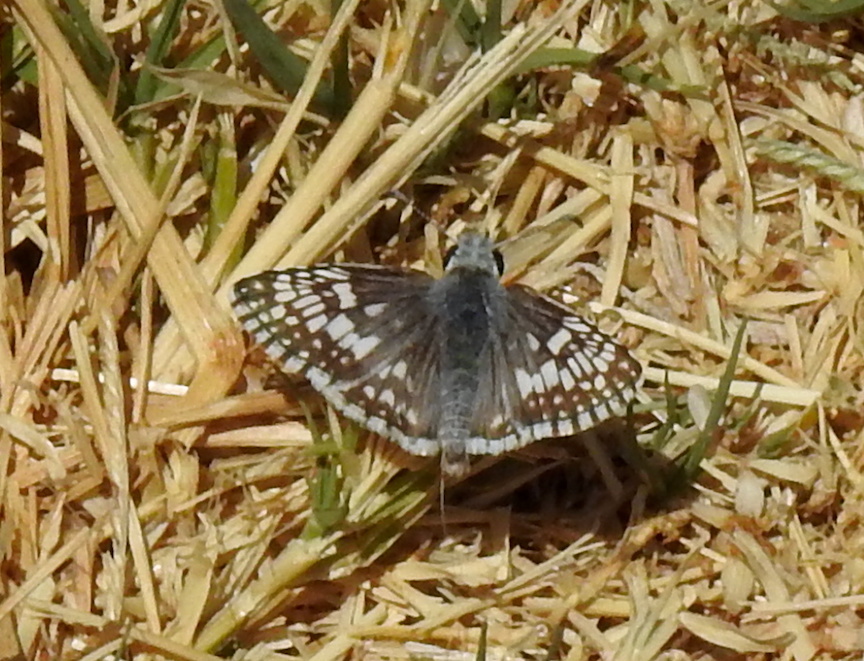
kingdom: Animalia
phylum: Arthropoda
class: Insecta
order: Lepidoptera
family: Hesperiidae
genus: Burnsius
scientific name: Burnsius communis
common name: Common checkered-skipper
